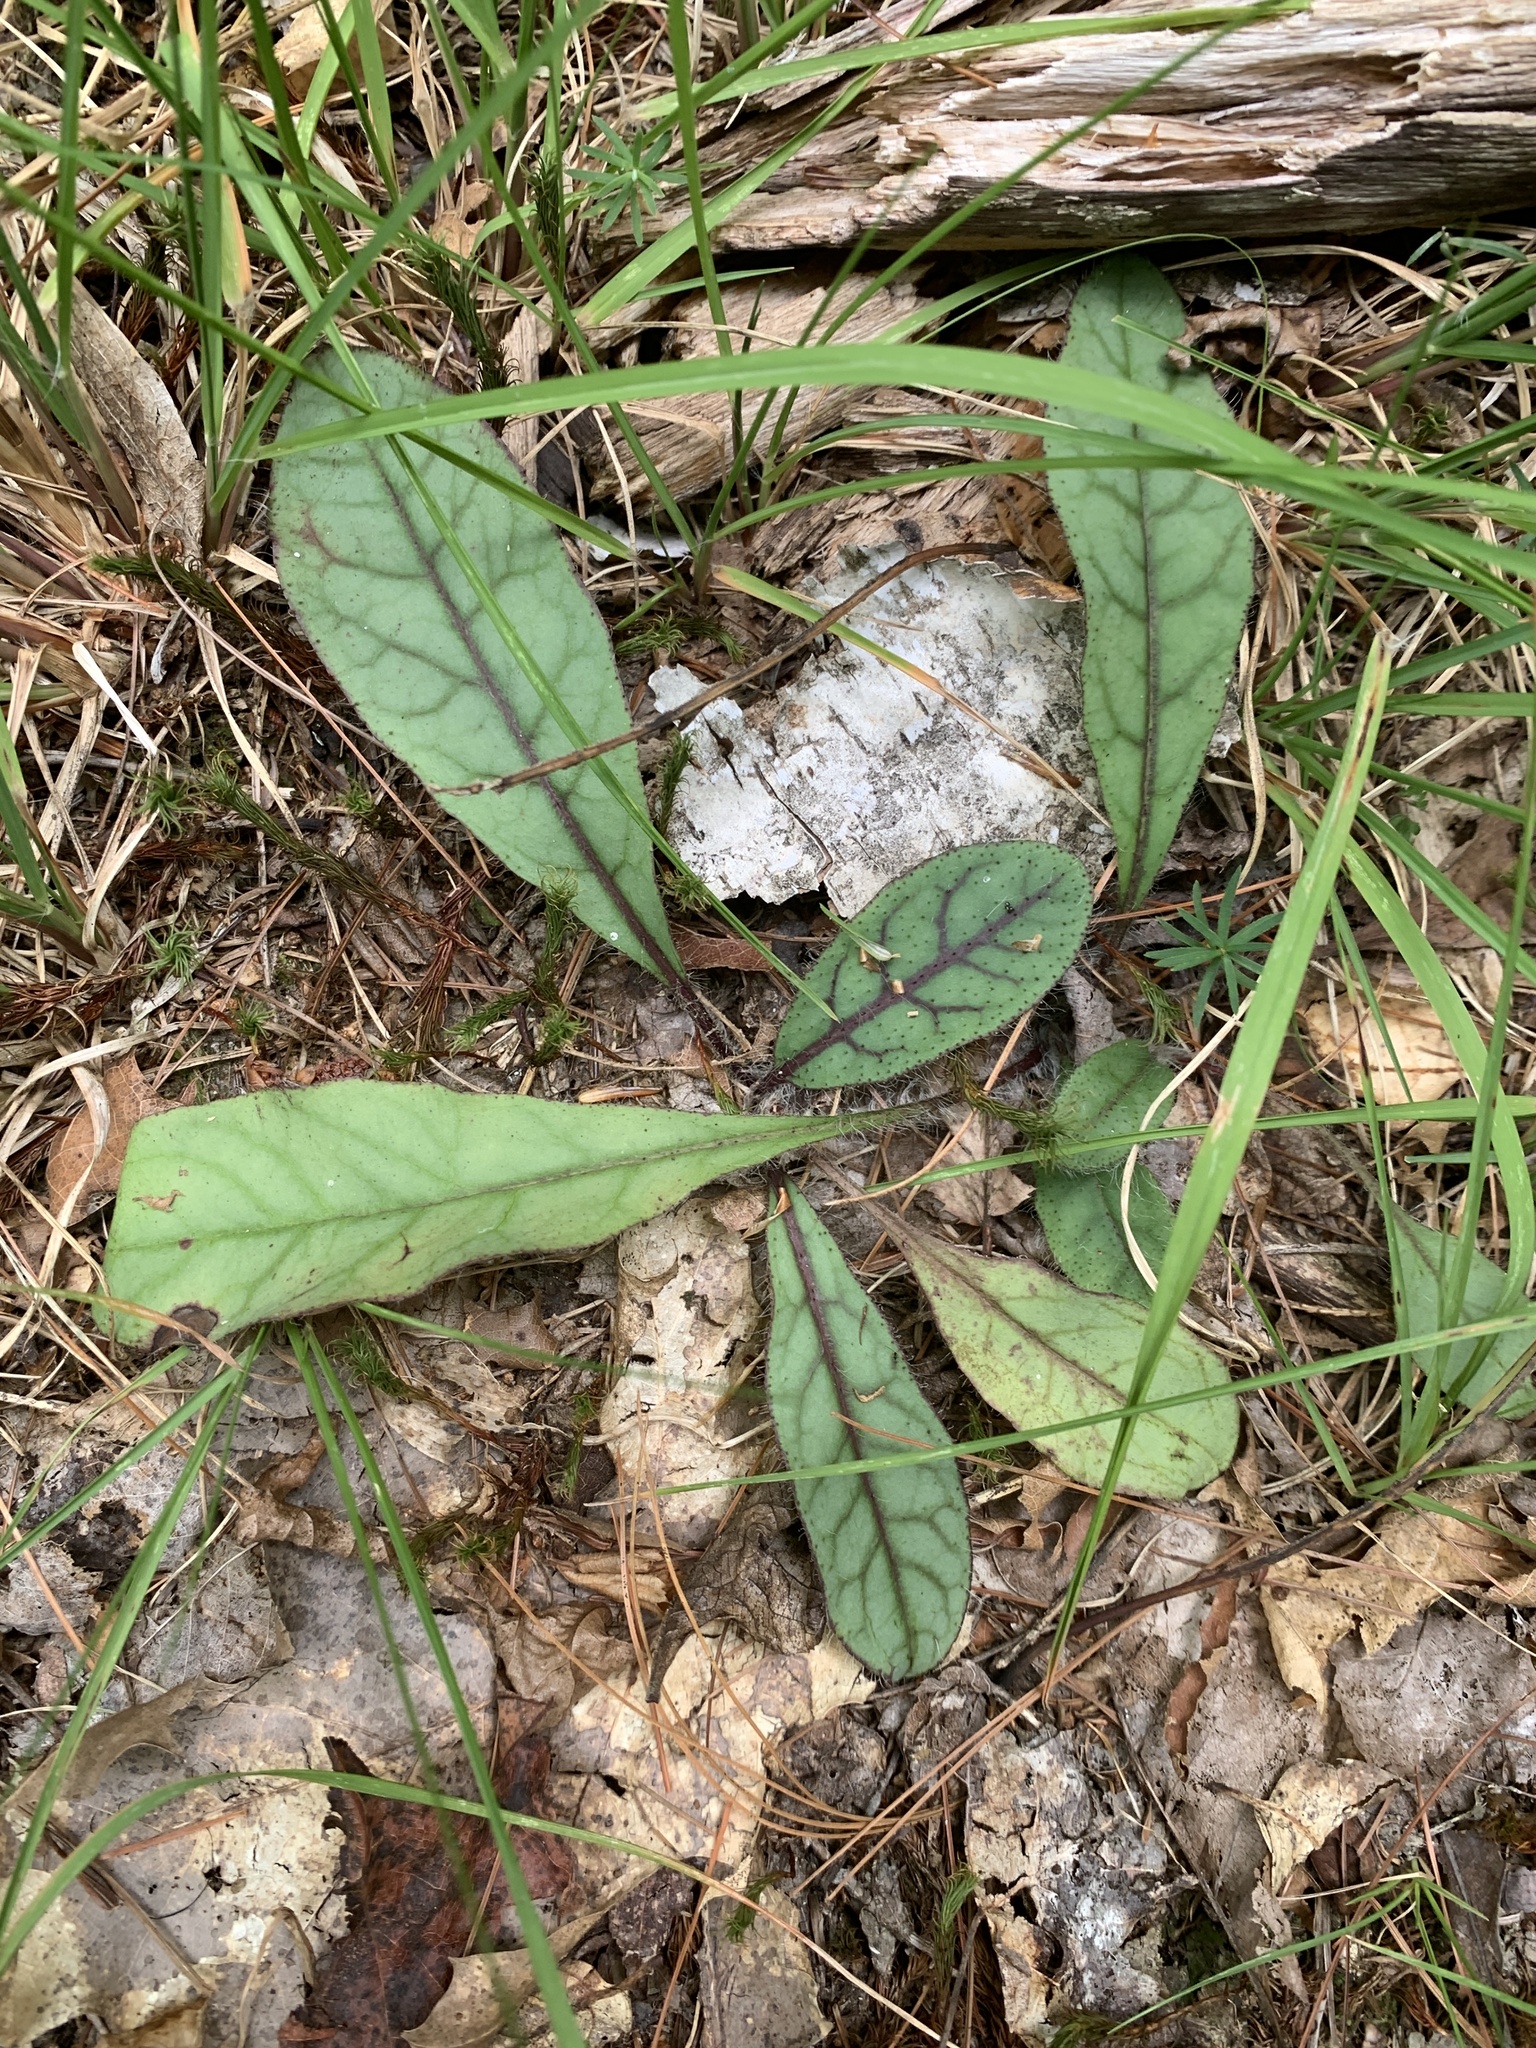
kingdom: Plantae
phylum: Tracheophyta
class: Magnoliopsida
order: Asterales
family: Asteraceae
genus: Hieracium
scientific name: Hieracium venosum
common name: Rattlesnake hawkweed
